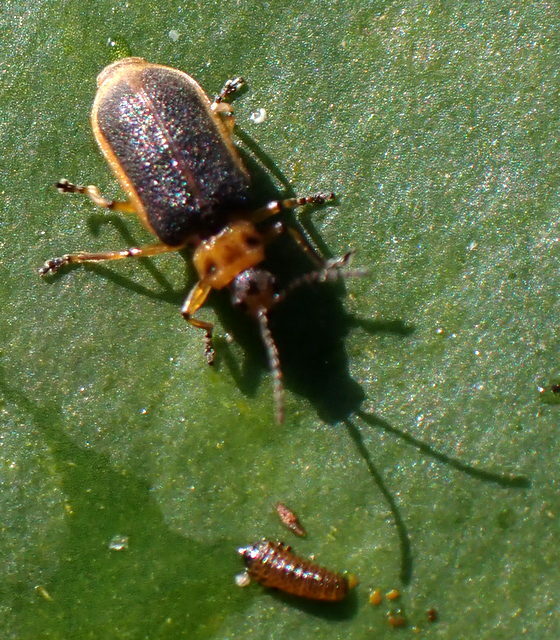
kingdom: Animalia
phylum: Arthropoda
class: Insecta
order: Coleoptera
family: Chrysomelidae
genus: Galerucella
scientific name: Galerucella nymphaeae
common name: Leaf beetle
